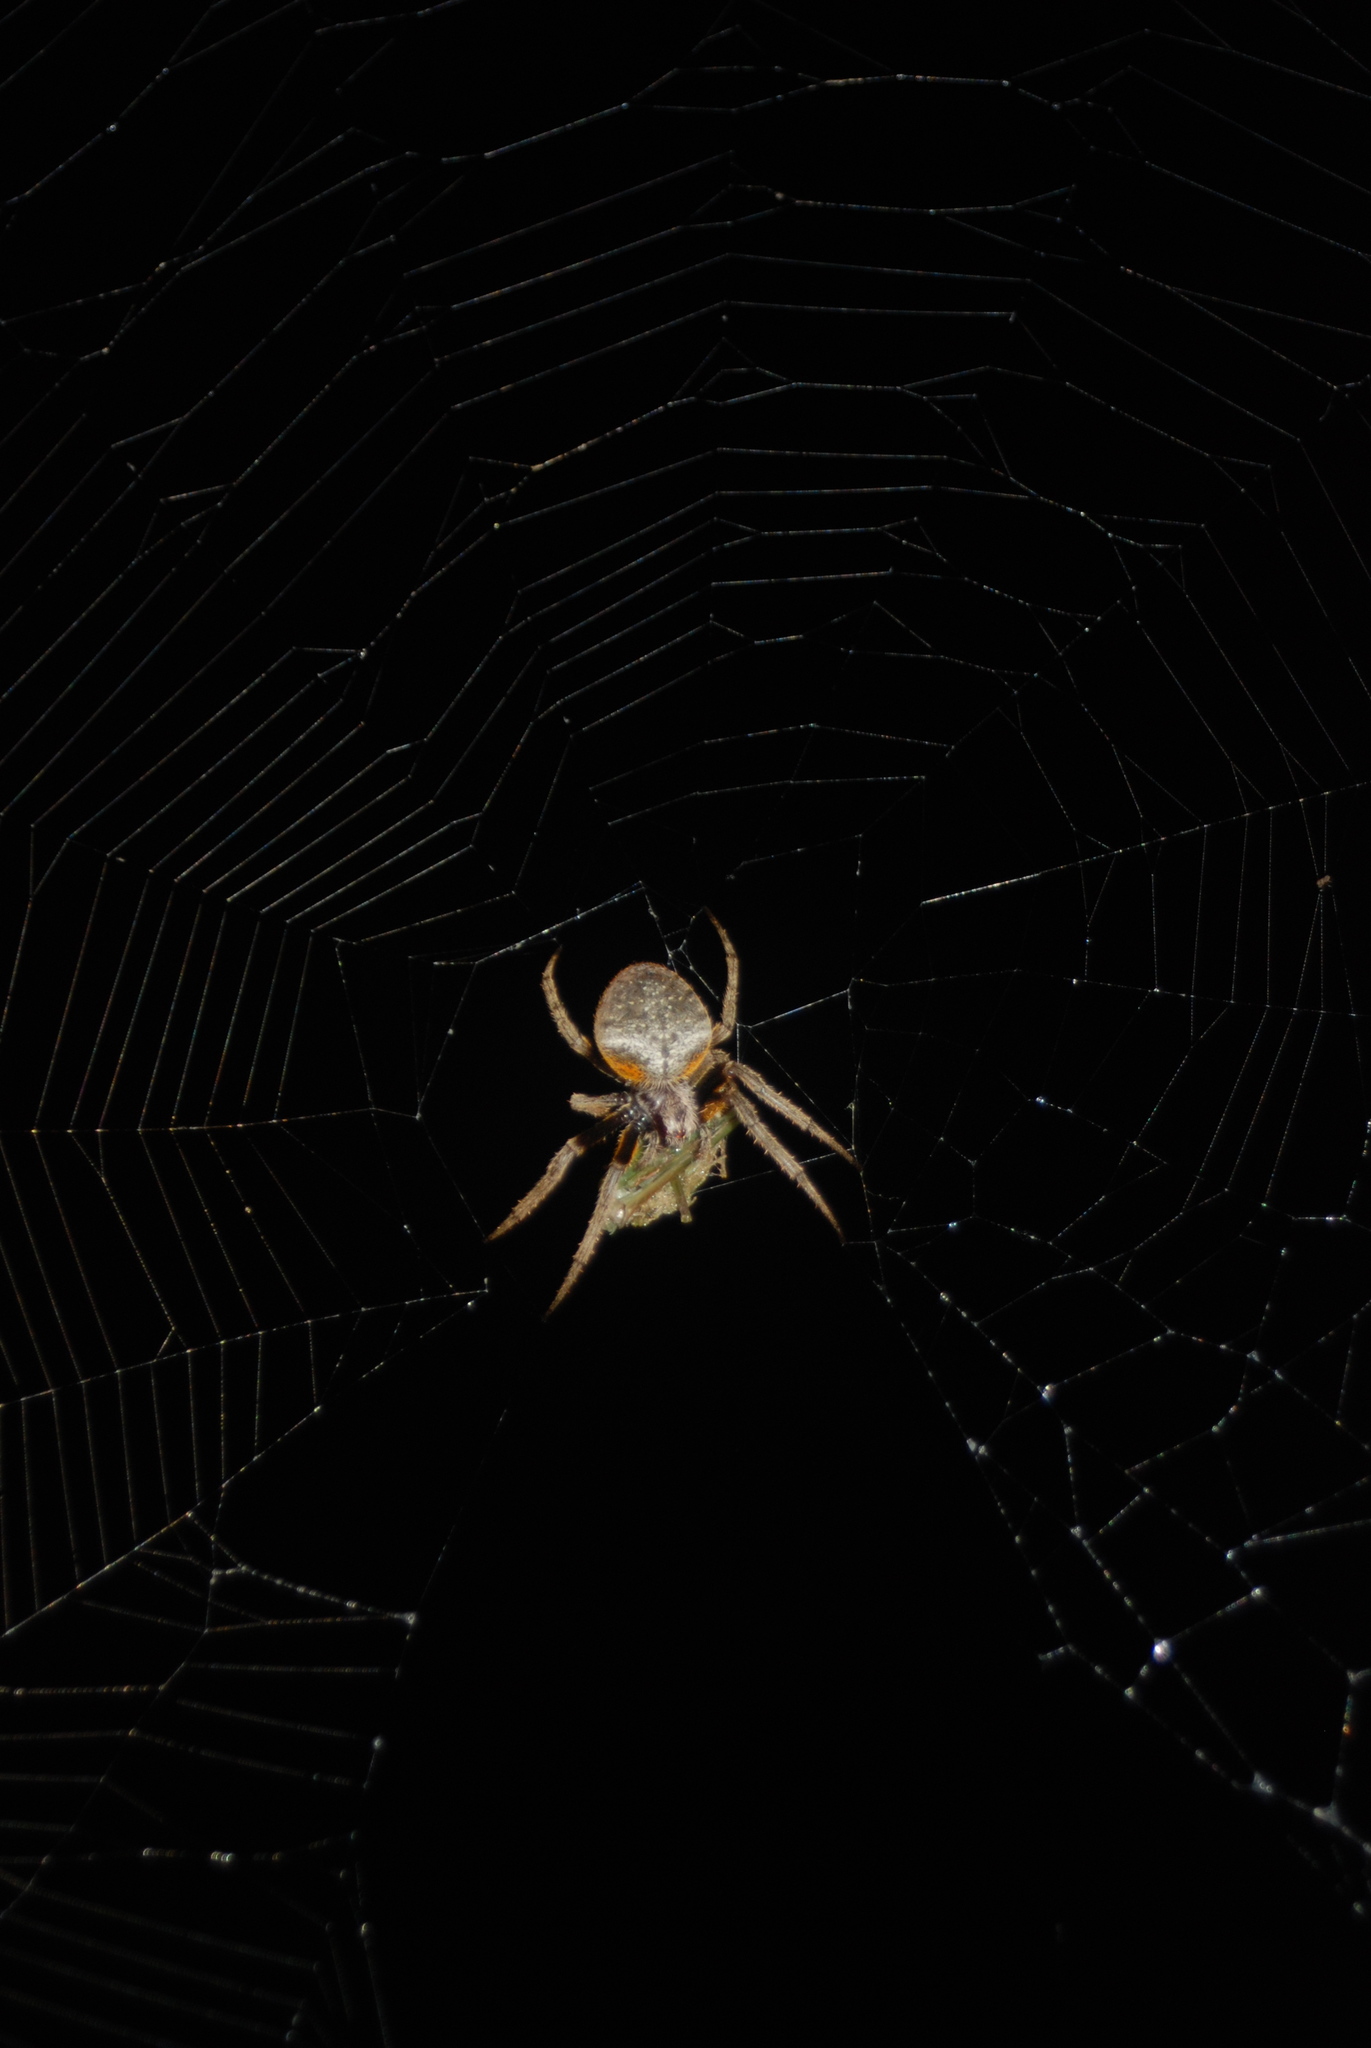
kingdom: Animalia
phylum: Arthropoda
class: Arachnida
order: Araneae
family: Araneidae
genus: Eriophora
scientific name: Eriophora ravilla
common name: Orb weavers
